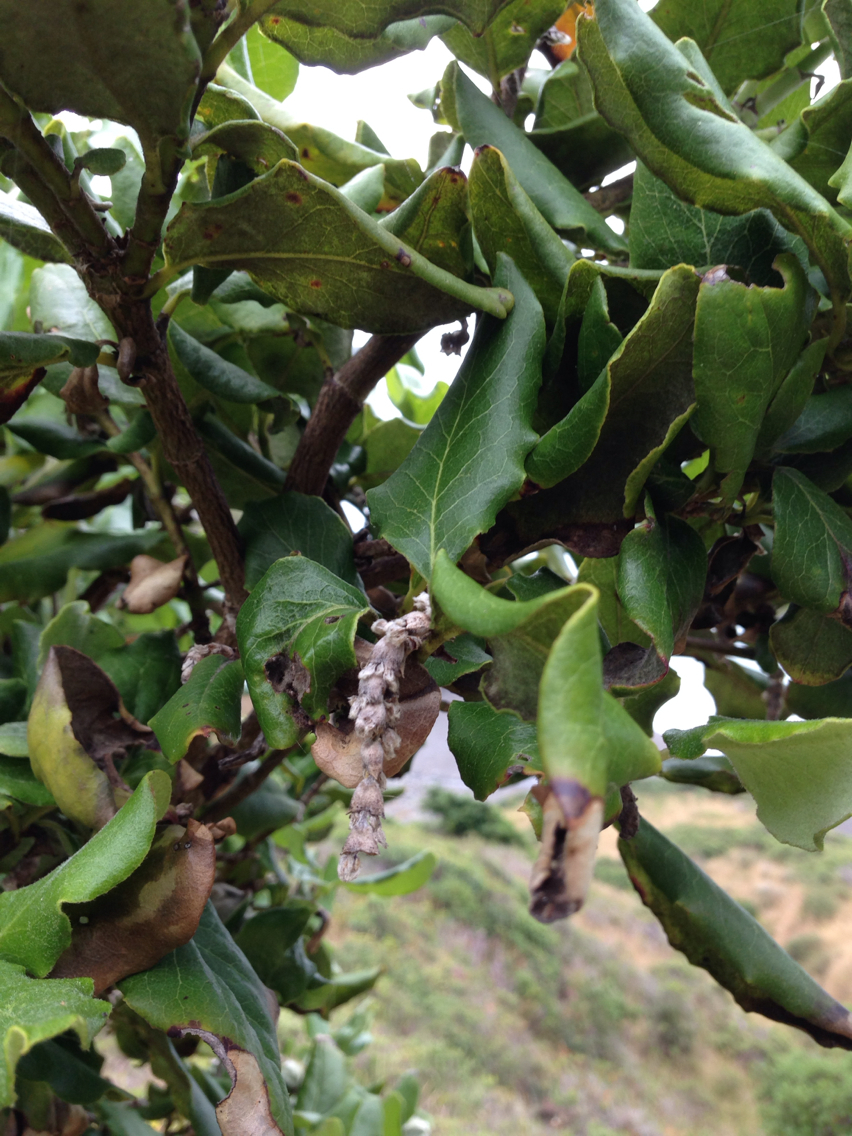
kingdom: Plantae
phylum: Tracheophyta
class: Magnoliopsida
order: Garryales
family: Garryaceae
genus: Garrya
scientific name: Garrya elliptica
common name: Silk-tassel
